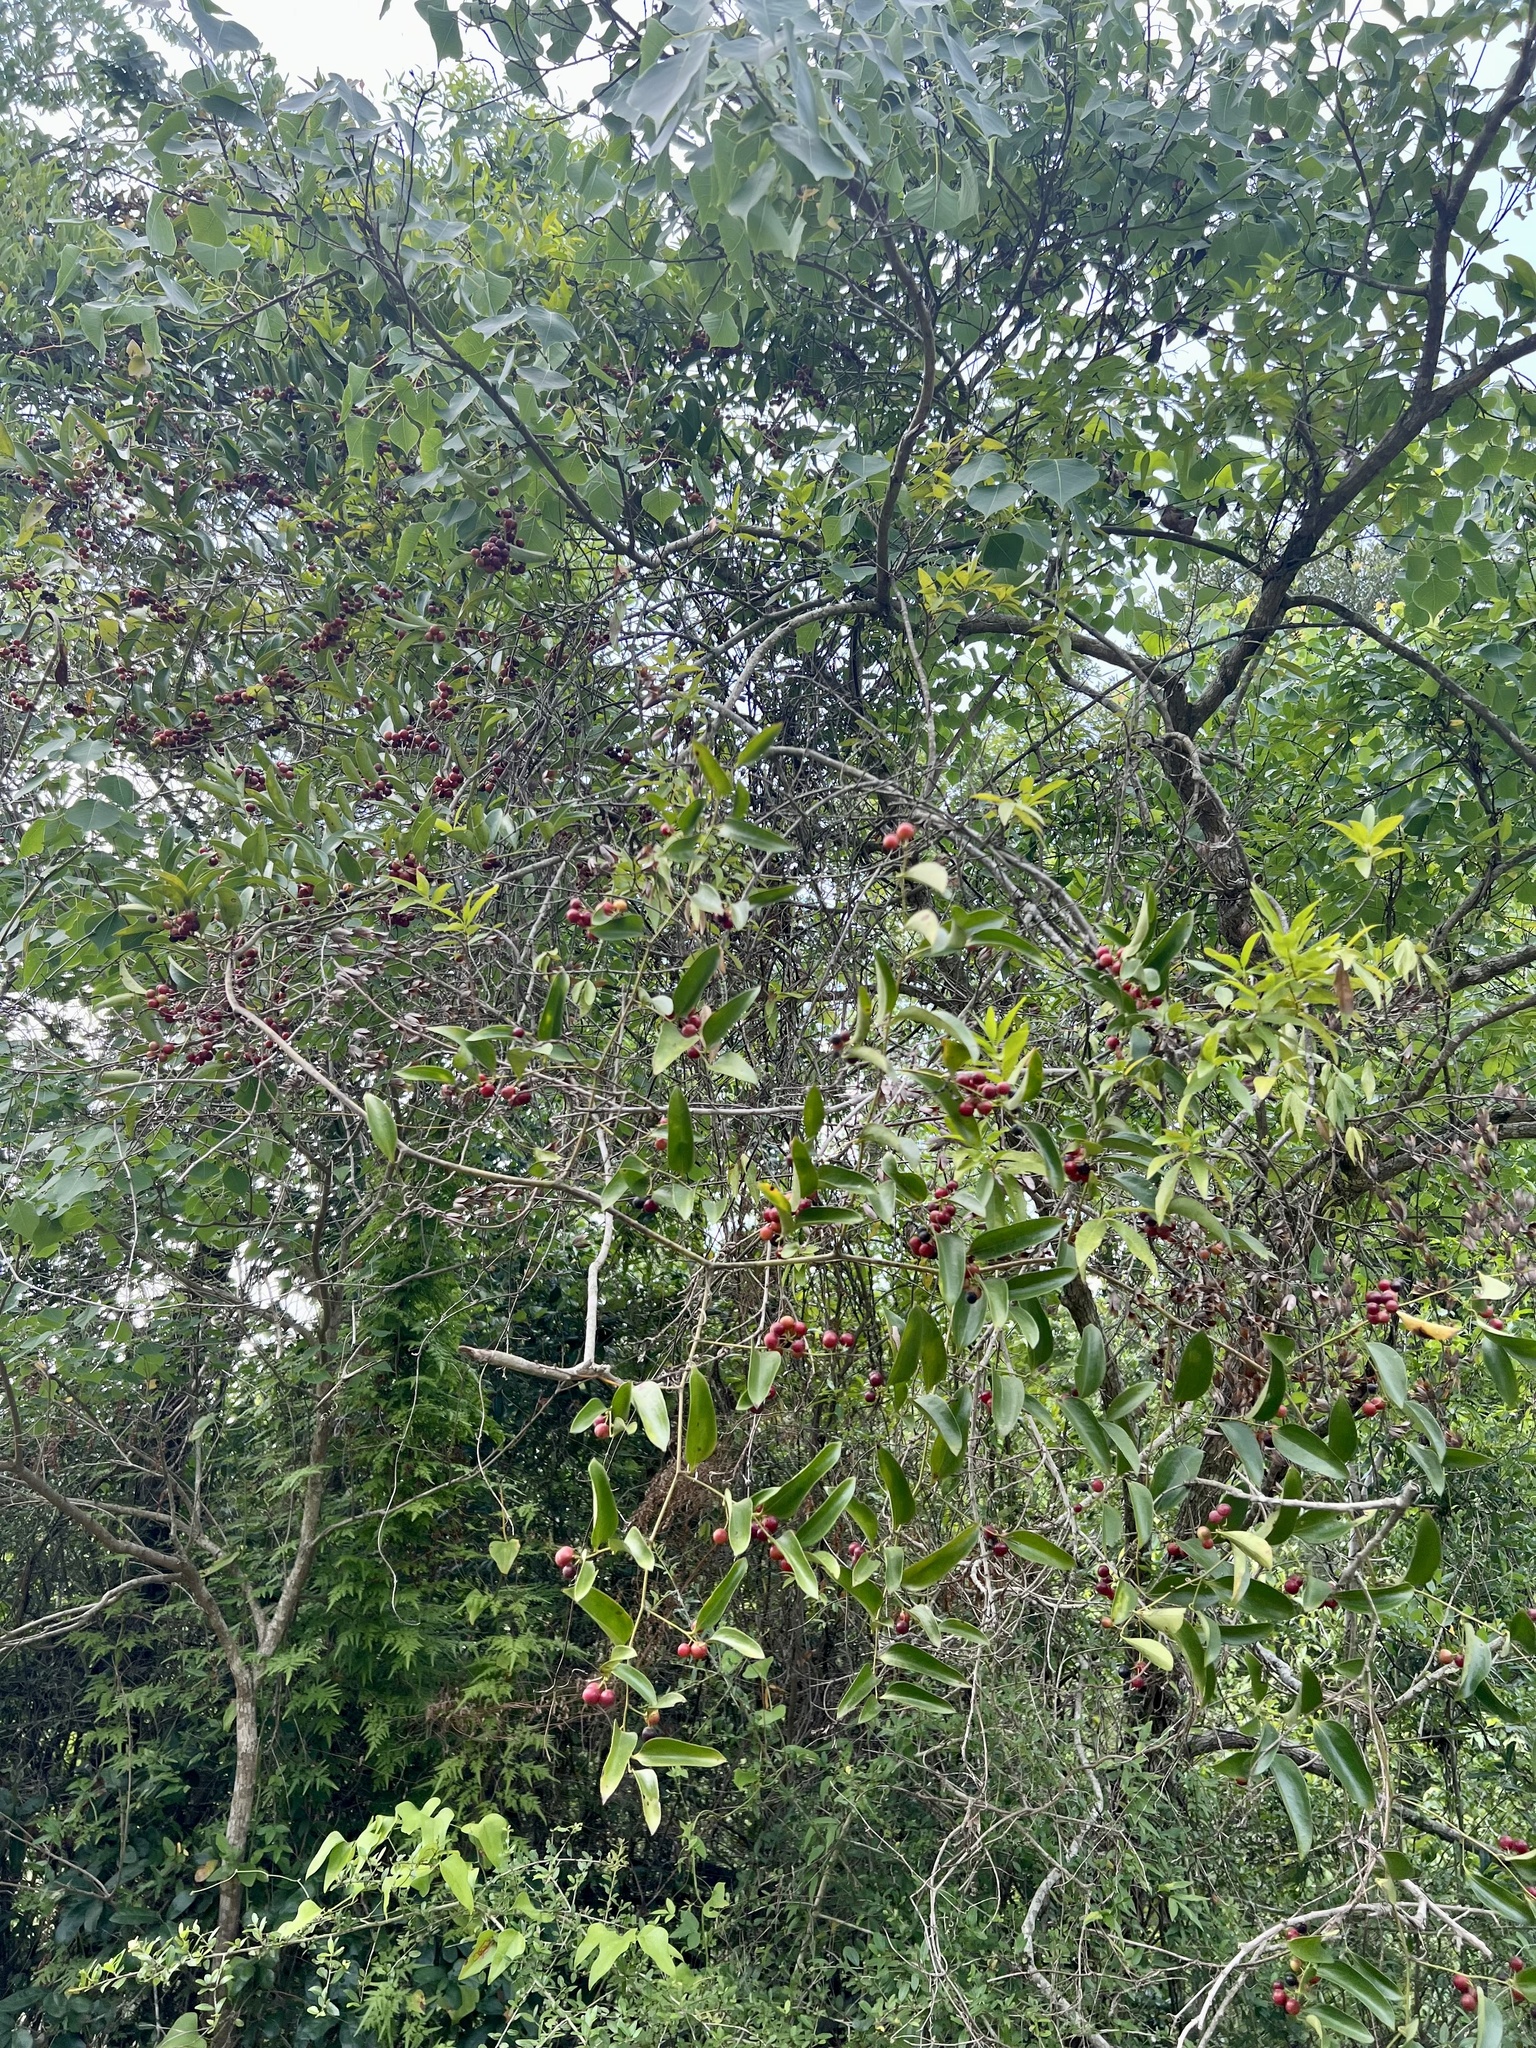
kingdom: Plantae
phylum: Tracheophyta
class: Liliopsida
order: Liliales
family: Smilacaceae
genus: Smilax
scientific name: Smilax maritima
